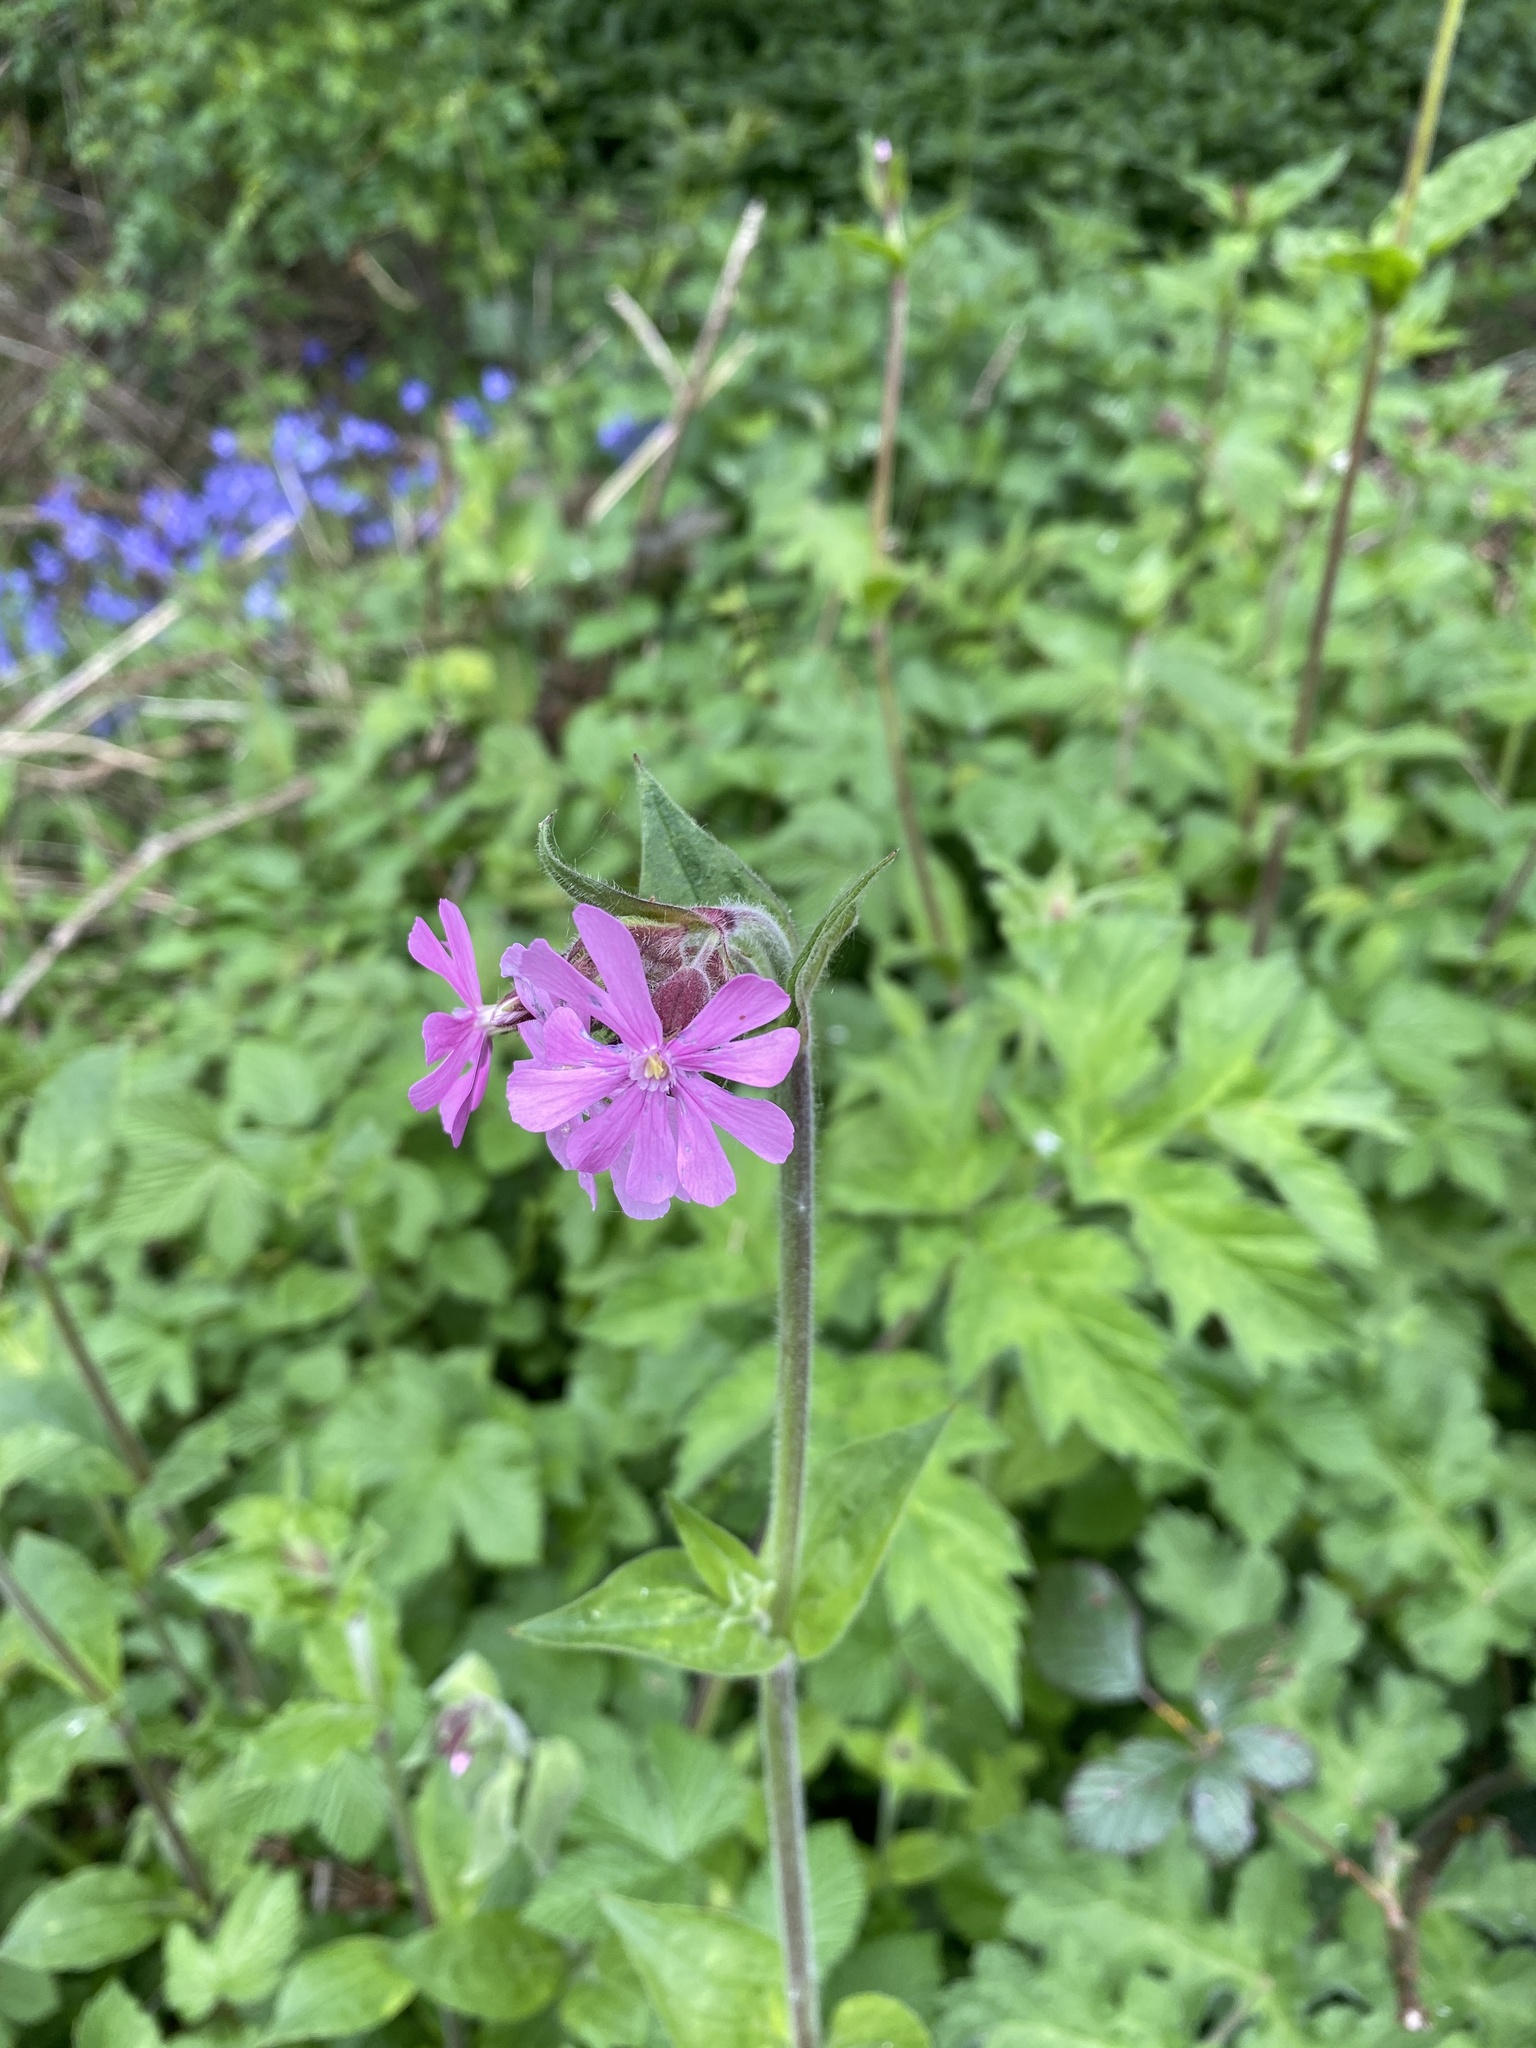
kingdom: Plantae
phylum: Tracheophyta
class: Magnoliopsida
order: Caryophyllales
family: Caryophyllaceae
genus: Silene
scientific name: Silene dioica
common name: Red campion
